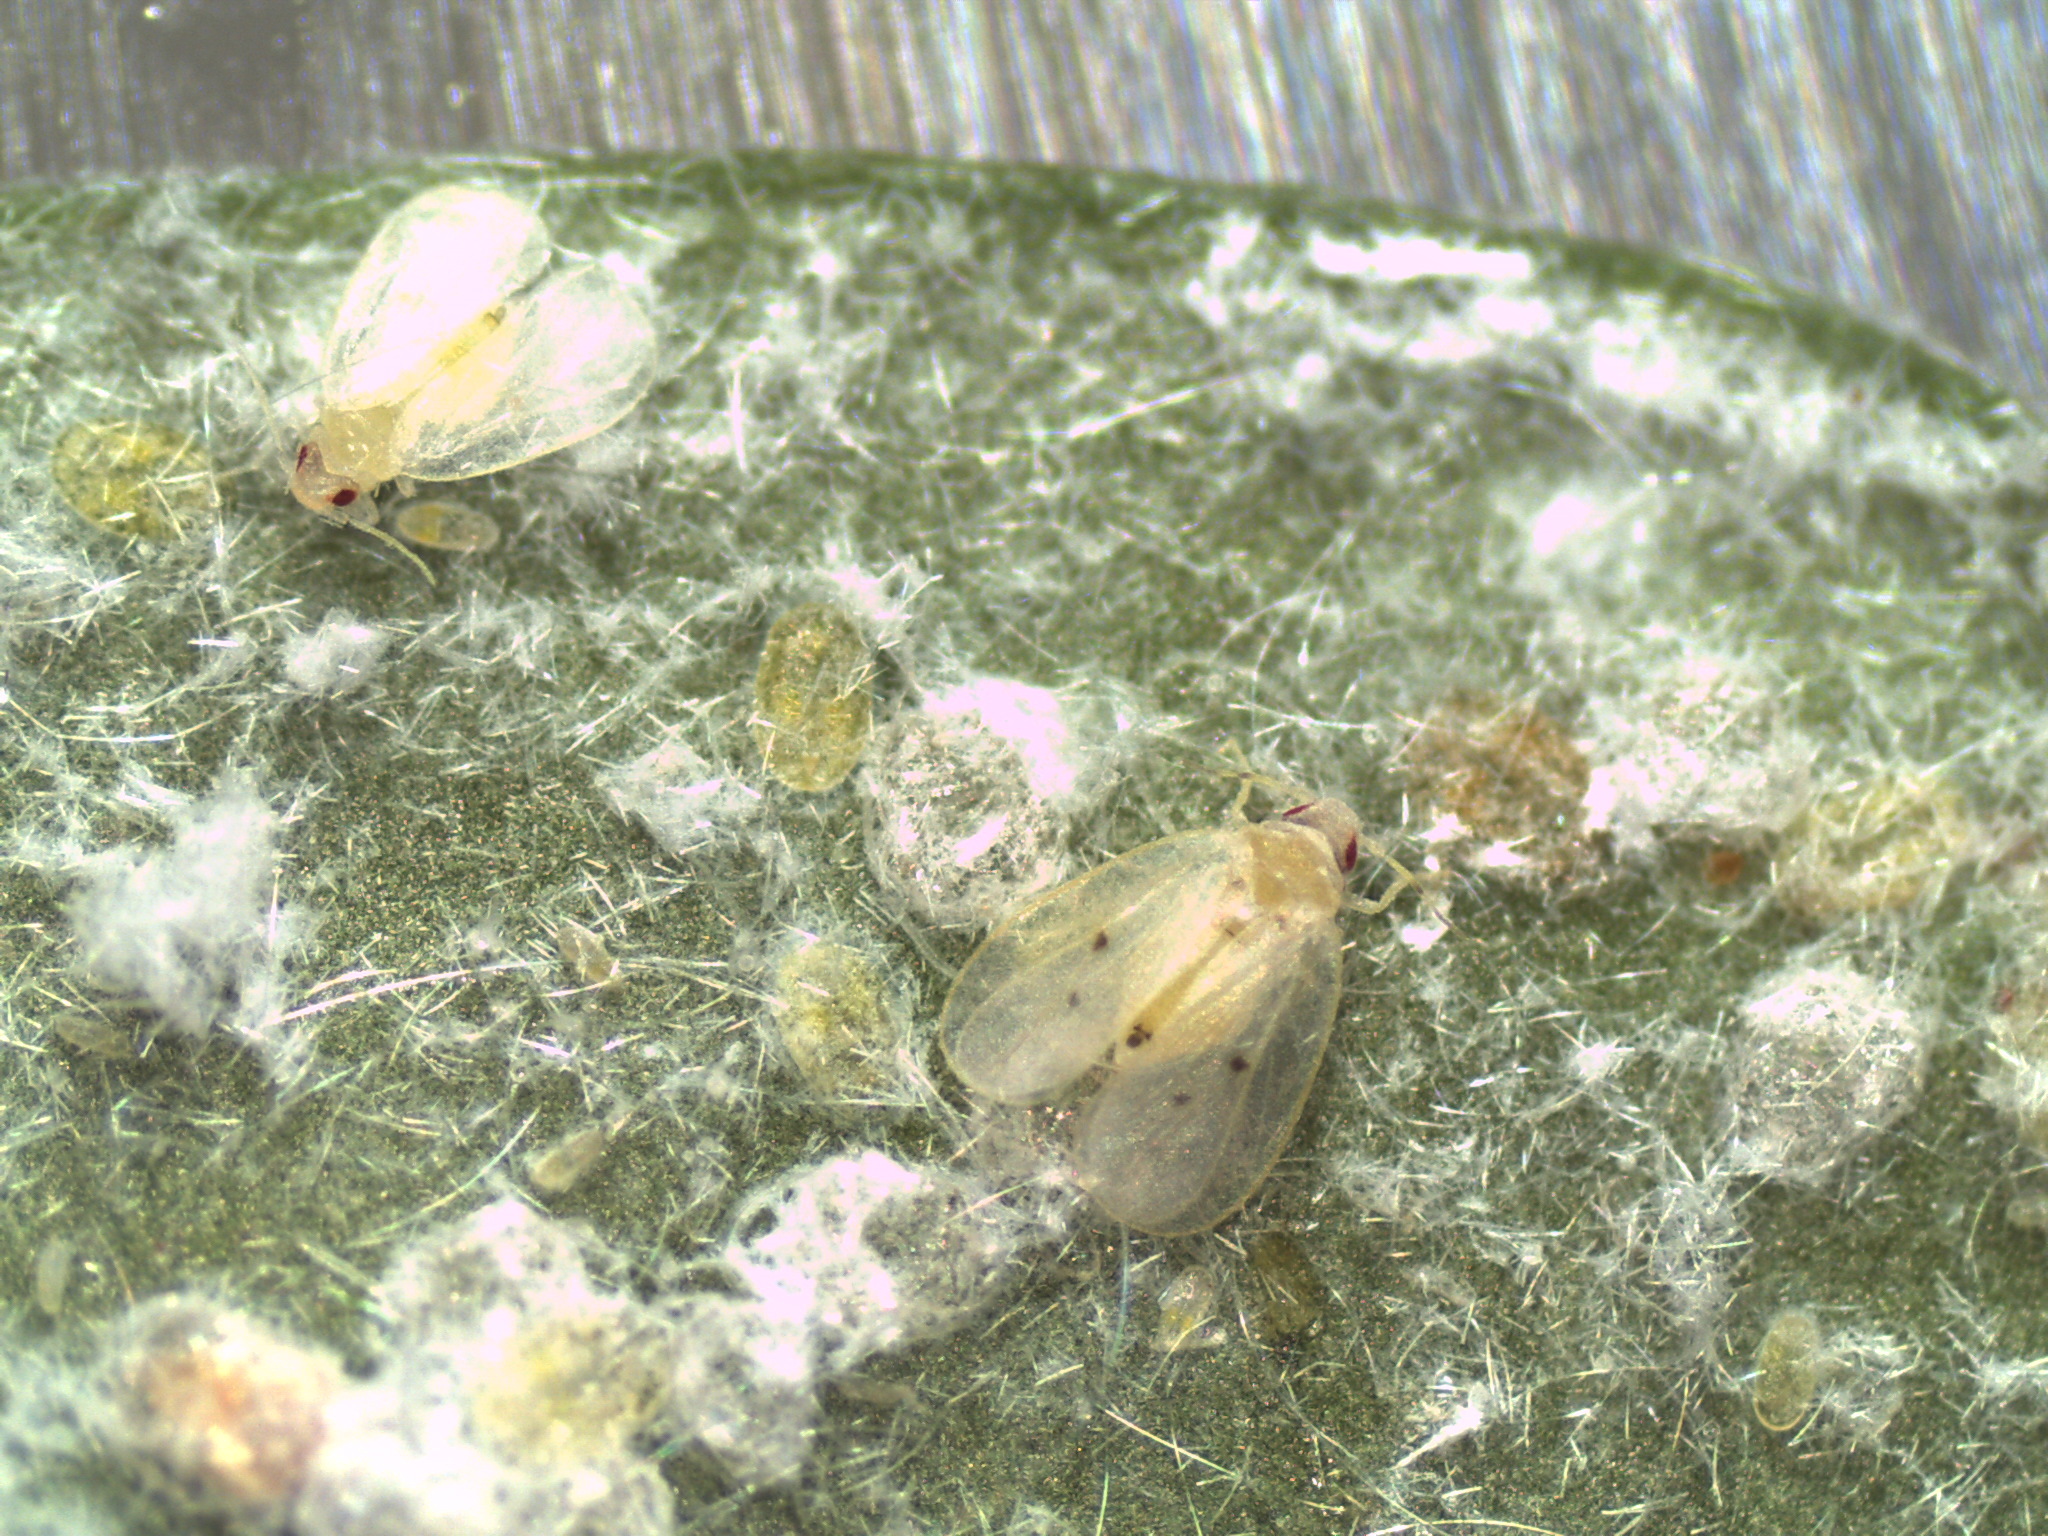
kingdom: Animalia
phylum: Arthropoda
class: Insecta
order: Hemiptera
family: Aleyrodidae
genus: Metaleurodicus
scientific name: Metaleurodicus cardini
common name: Whitefly
